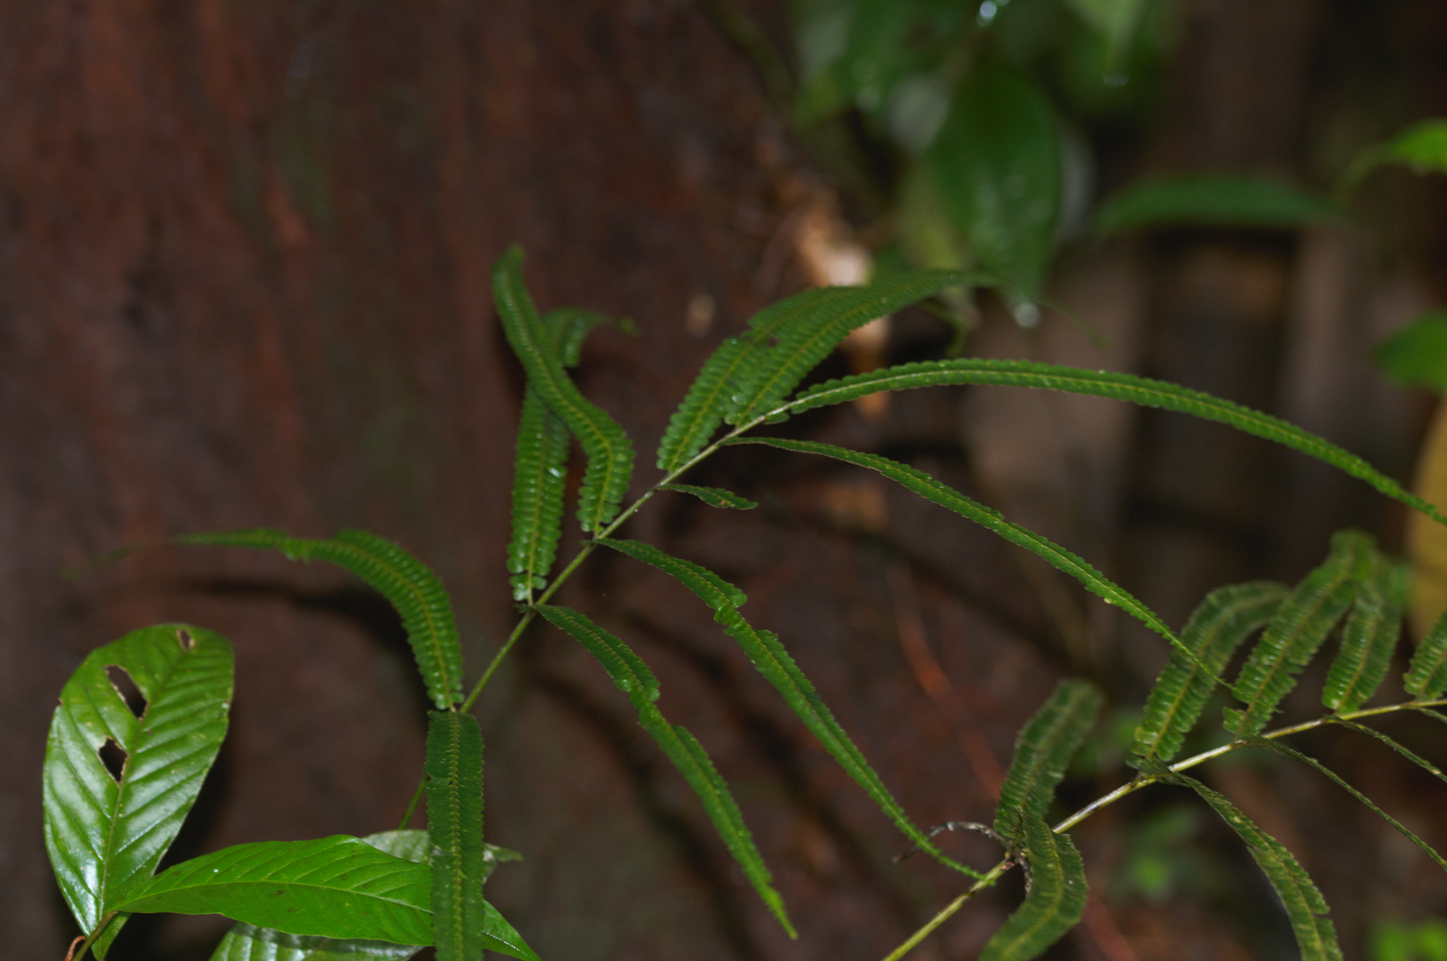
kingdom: Plantae
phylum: Tracheophyta
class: Polypodiopsida
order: Polypodiales
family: Lindsaeaceae
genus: Lindsaea
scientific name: Lindsaea guianensis
